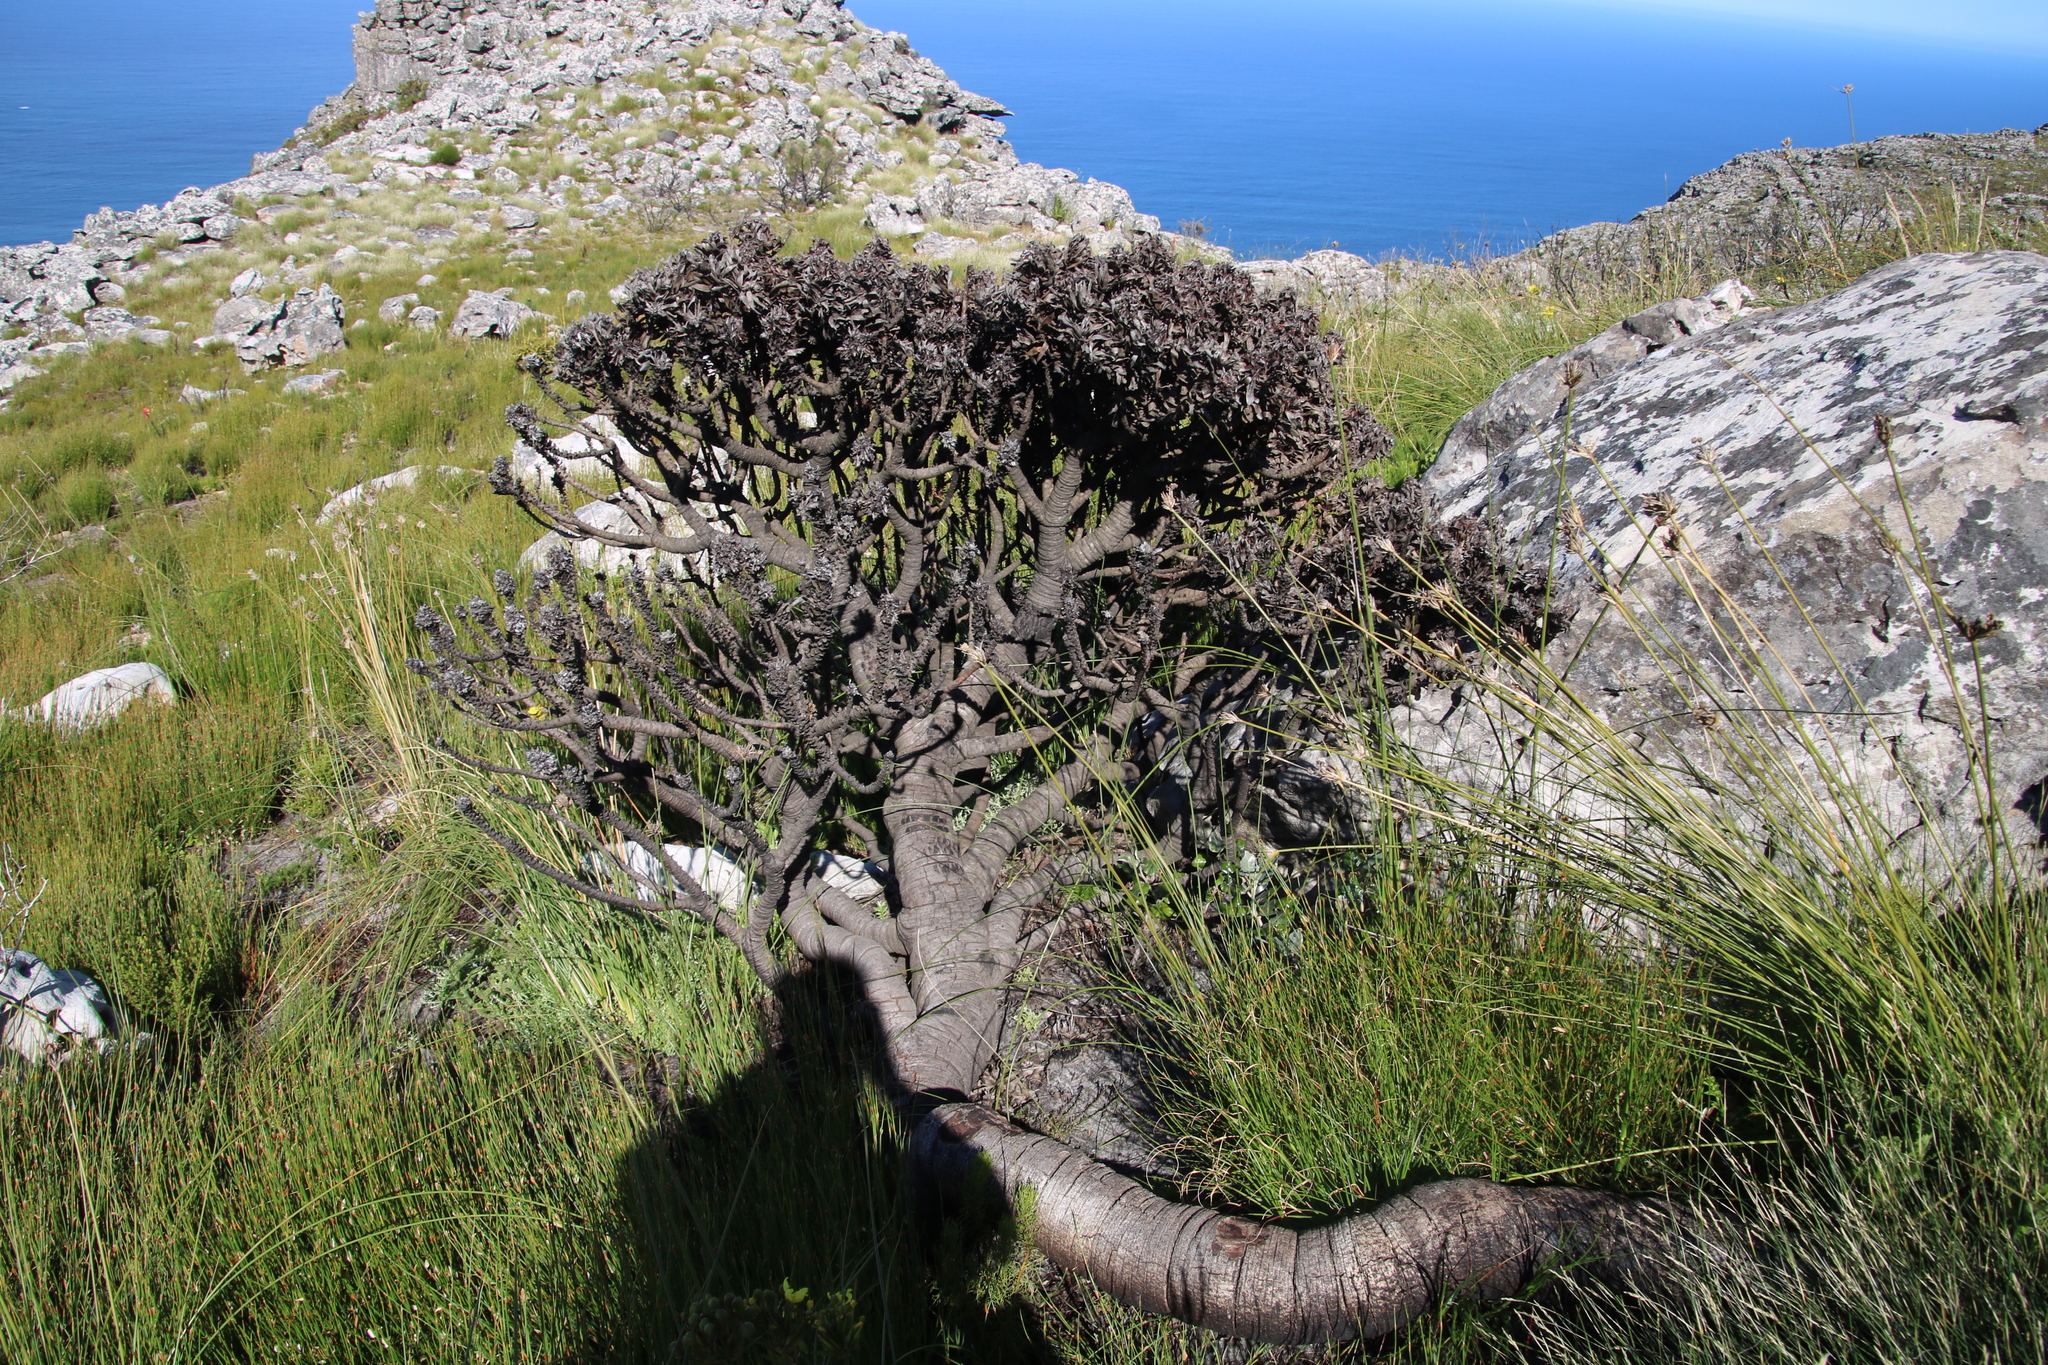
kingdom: Plantae
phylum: Tracheophyta
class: Magnoliopsida
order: Proteales
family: Proteaceae
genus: Mimetes
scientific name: Mimetes fimbriifolius
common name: Fringed bottlebrush
